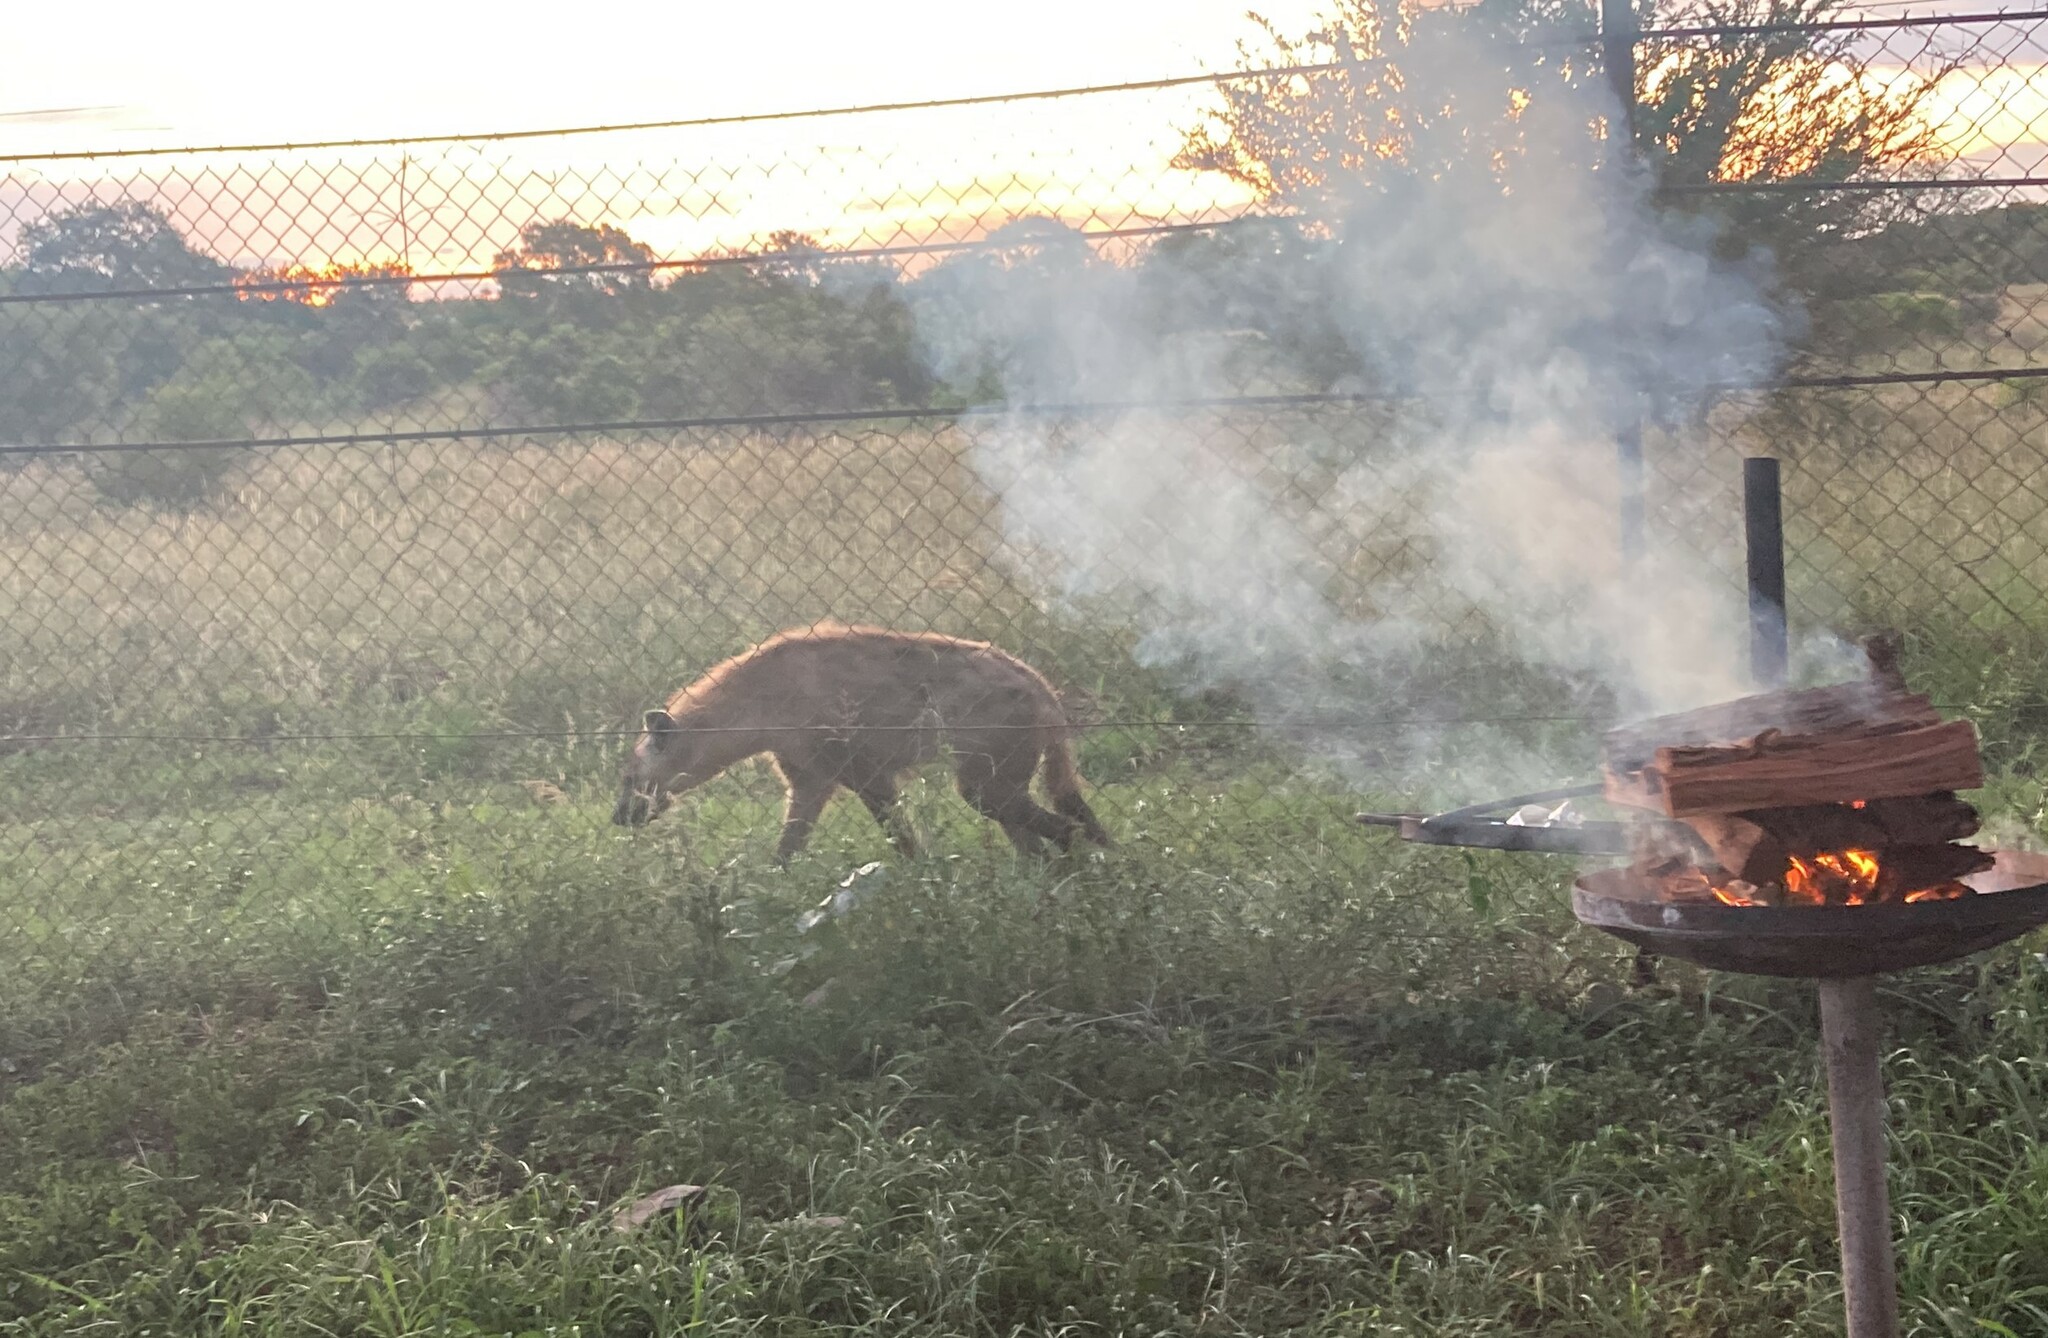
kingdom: Animalia
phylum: Chordata
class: Mammalia
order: Carnivora
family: Hyaenidae
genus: Crocuta
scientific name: Crocuta crocuta
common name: Spotted hyaena
